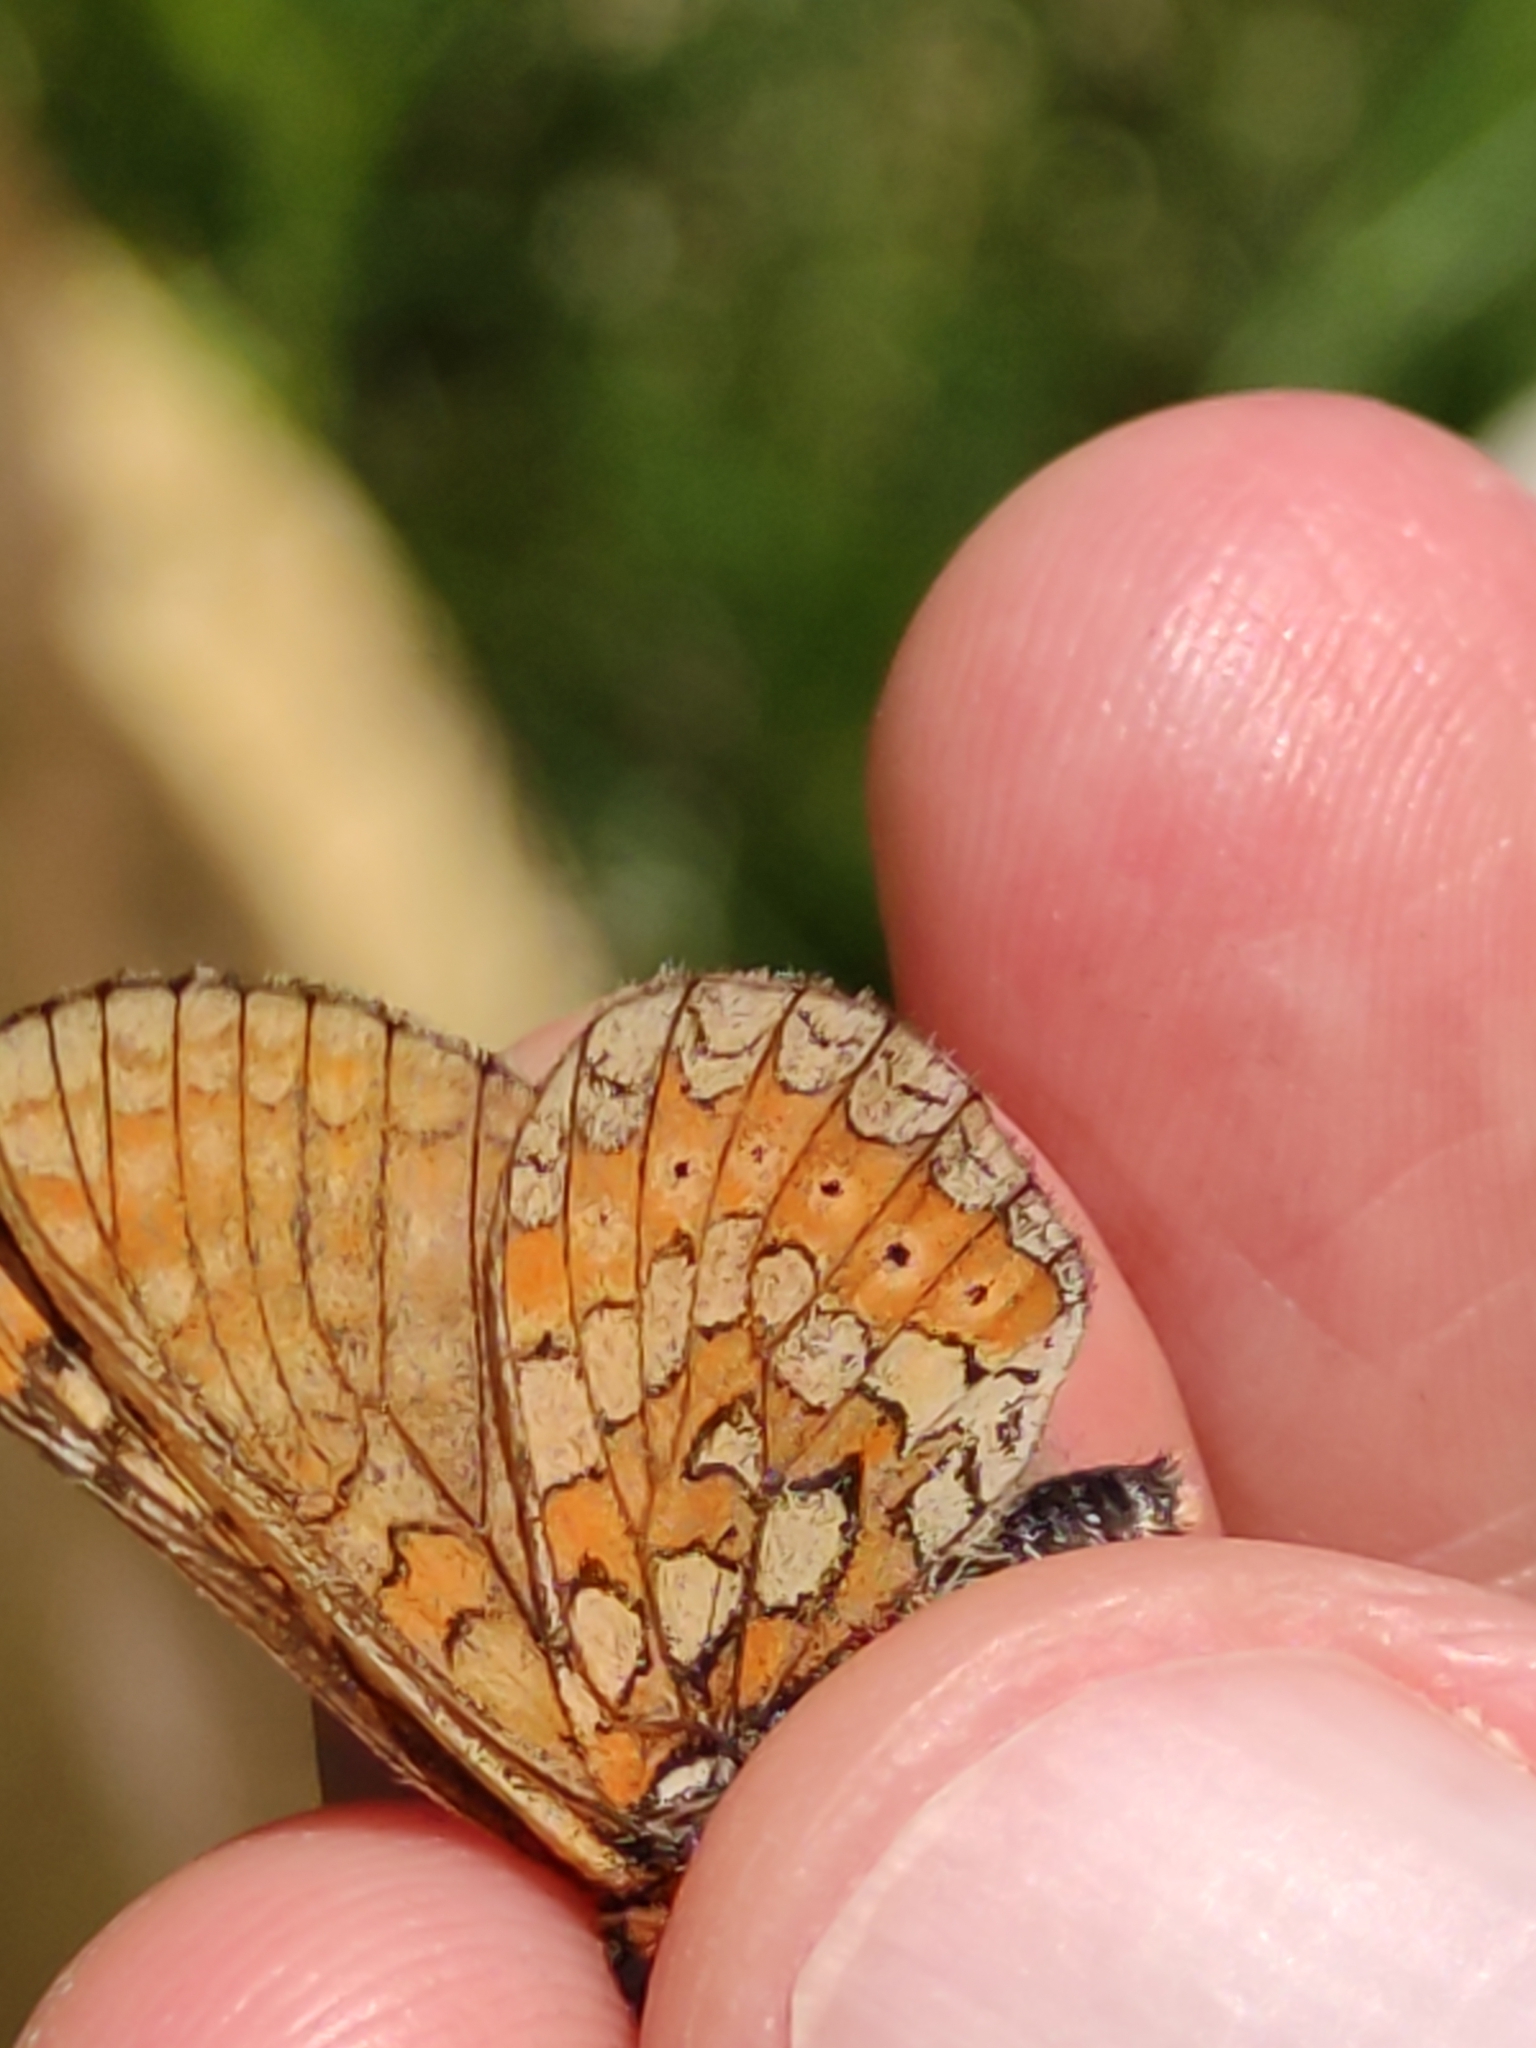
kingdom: Animalia
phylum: Arthropoda
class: Insecta
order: Lepidoptera
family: Nymphalidae
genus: Euphydryas
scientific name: Euphydryas aurinia
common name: Marsh fritillary
